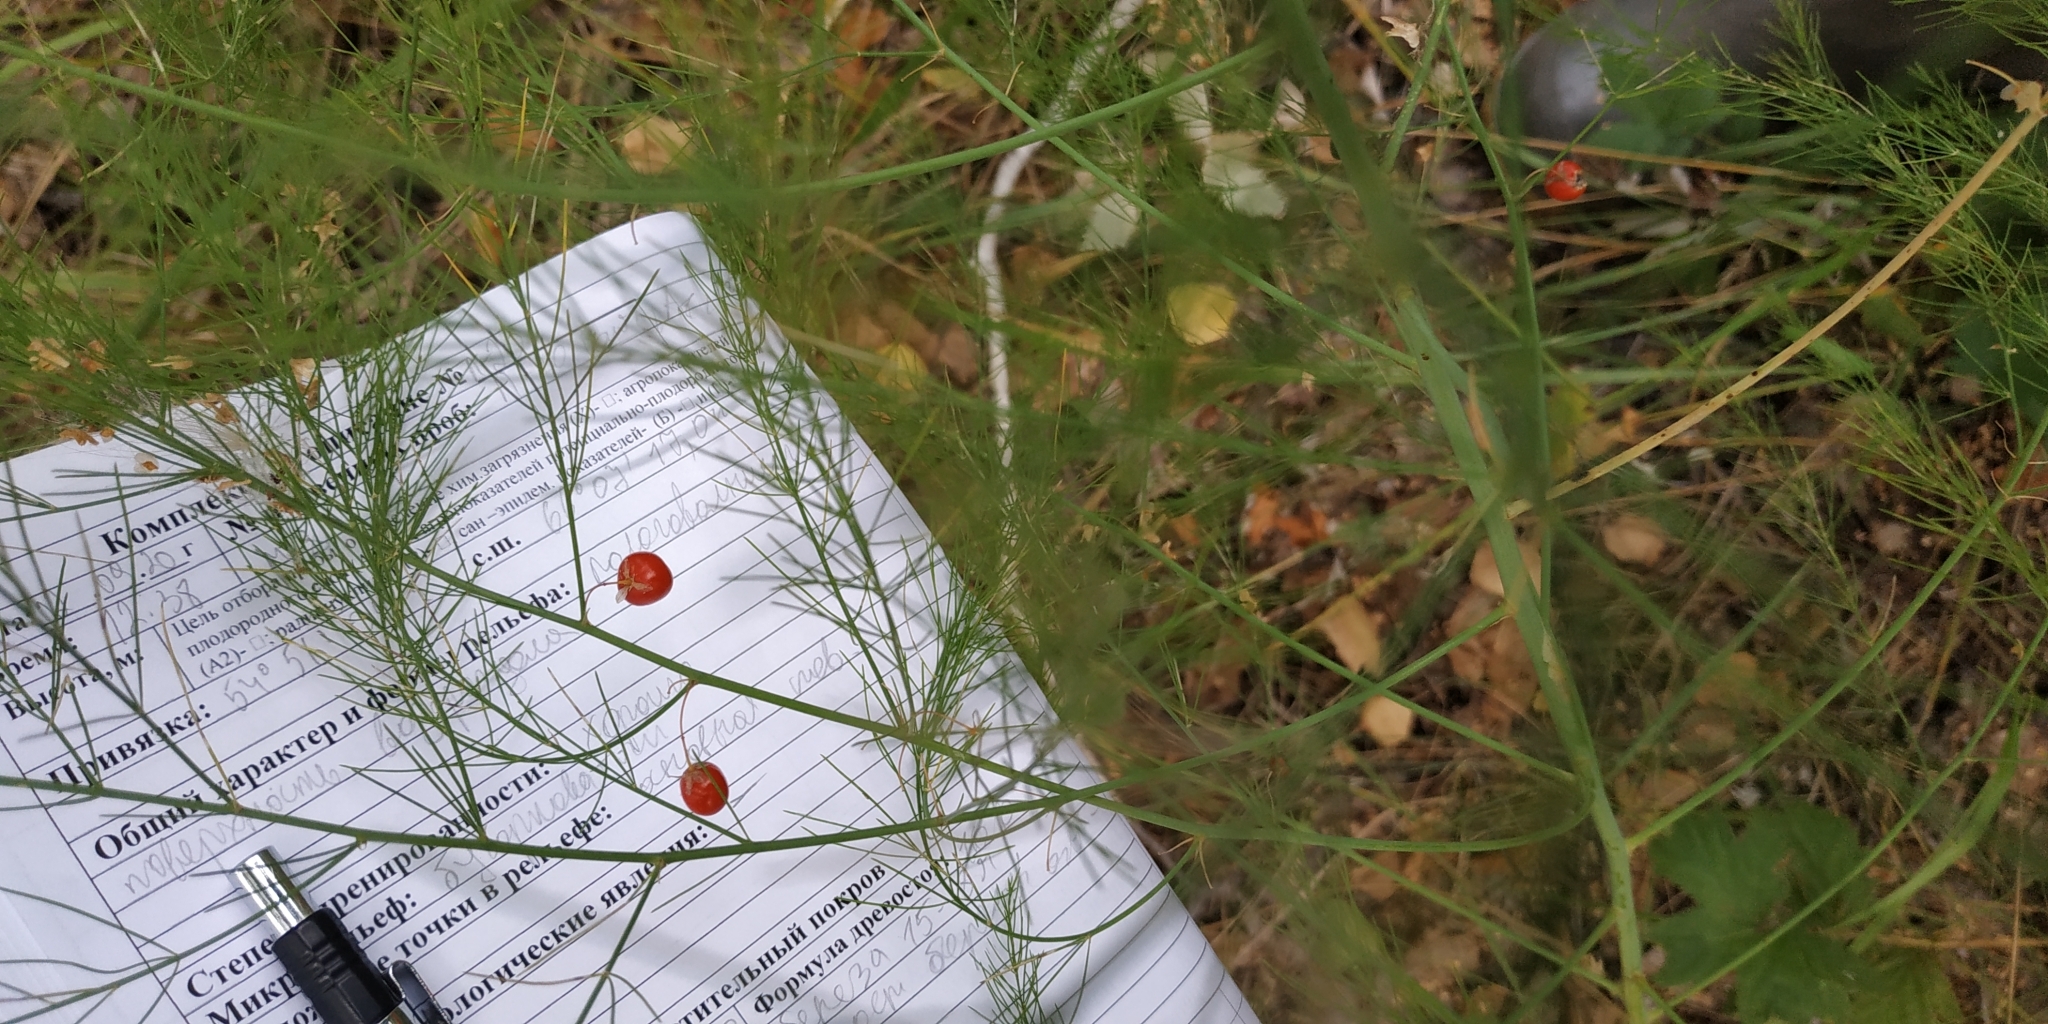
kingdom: Plantae
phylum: Tracheophyta
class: Liliopsida
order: Asparagales
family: Asparagaceae
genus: Asparagus
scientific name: Asparagus officinalis
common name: Garden asparagus
